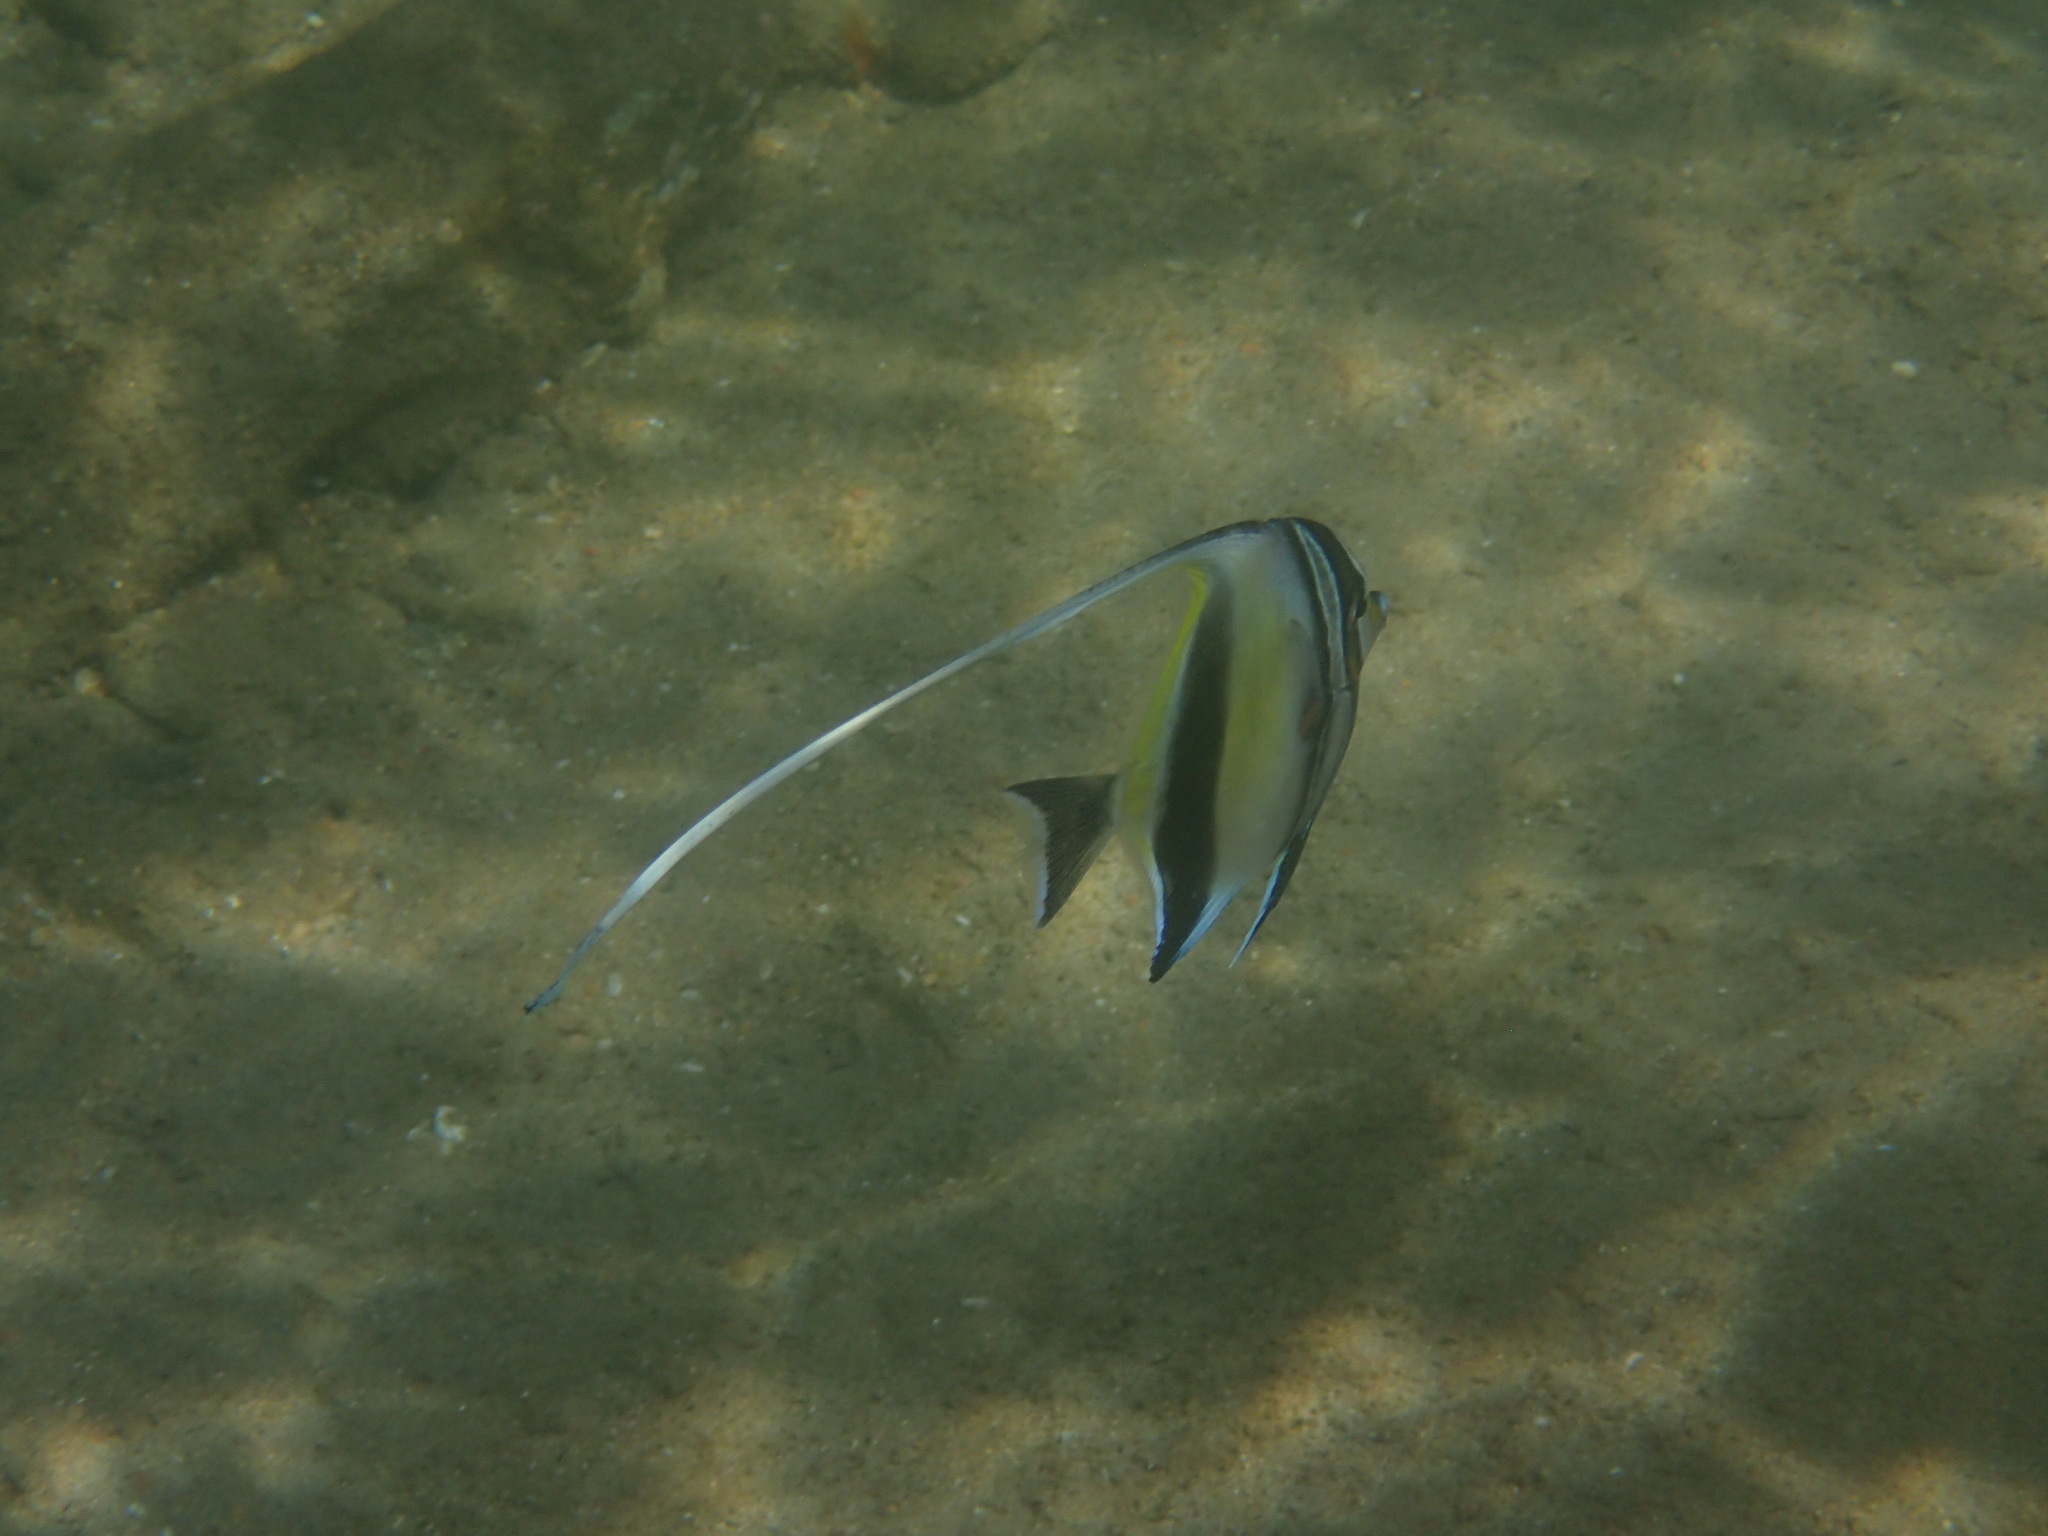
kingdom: Animalia
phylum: Chordata
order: Perciformes
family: Zanclidae
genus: Zanclus
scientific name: Zanclus cornutus
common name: Moorish idol
